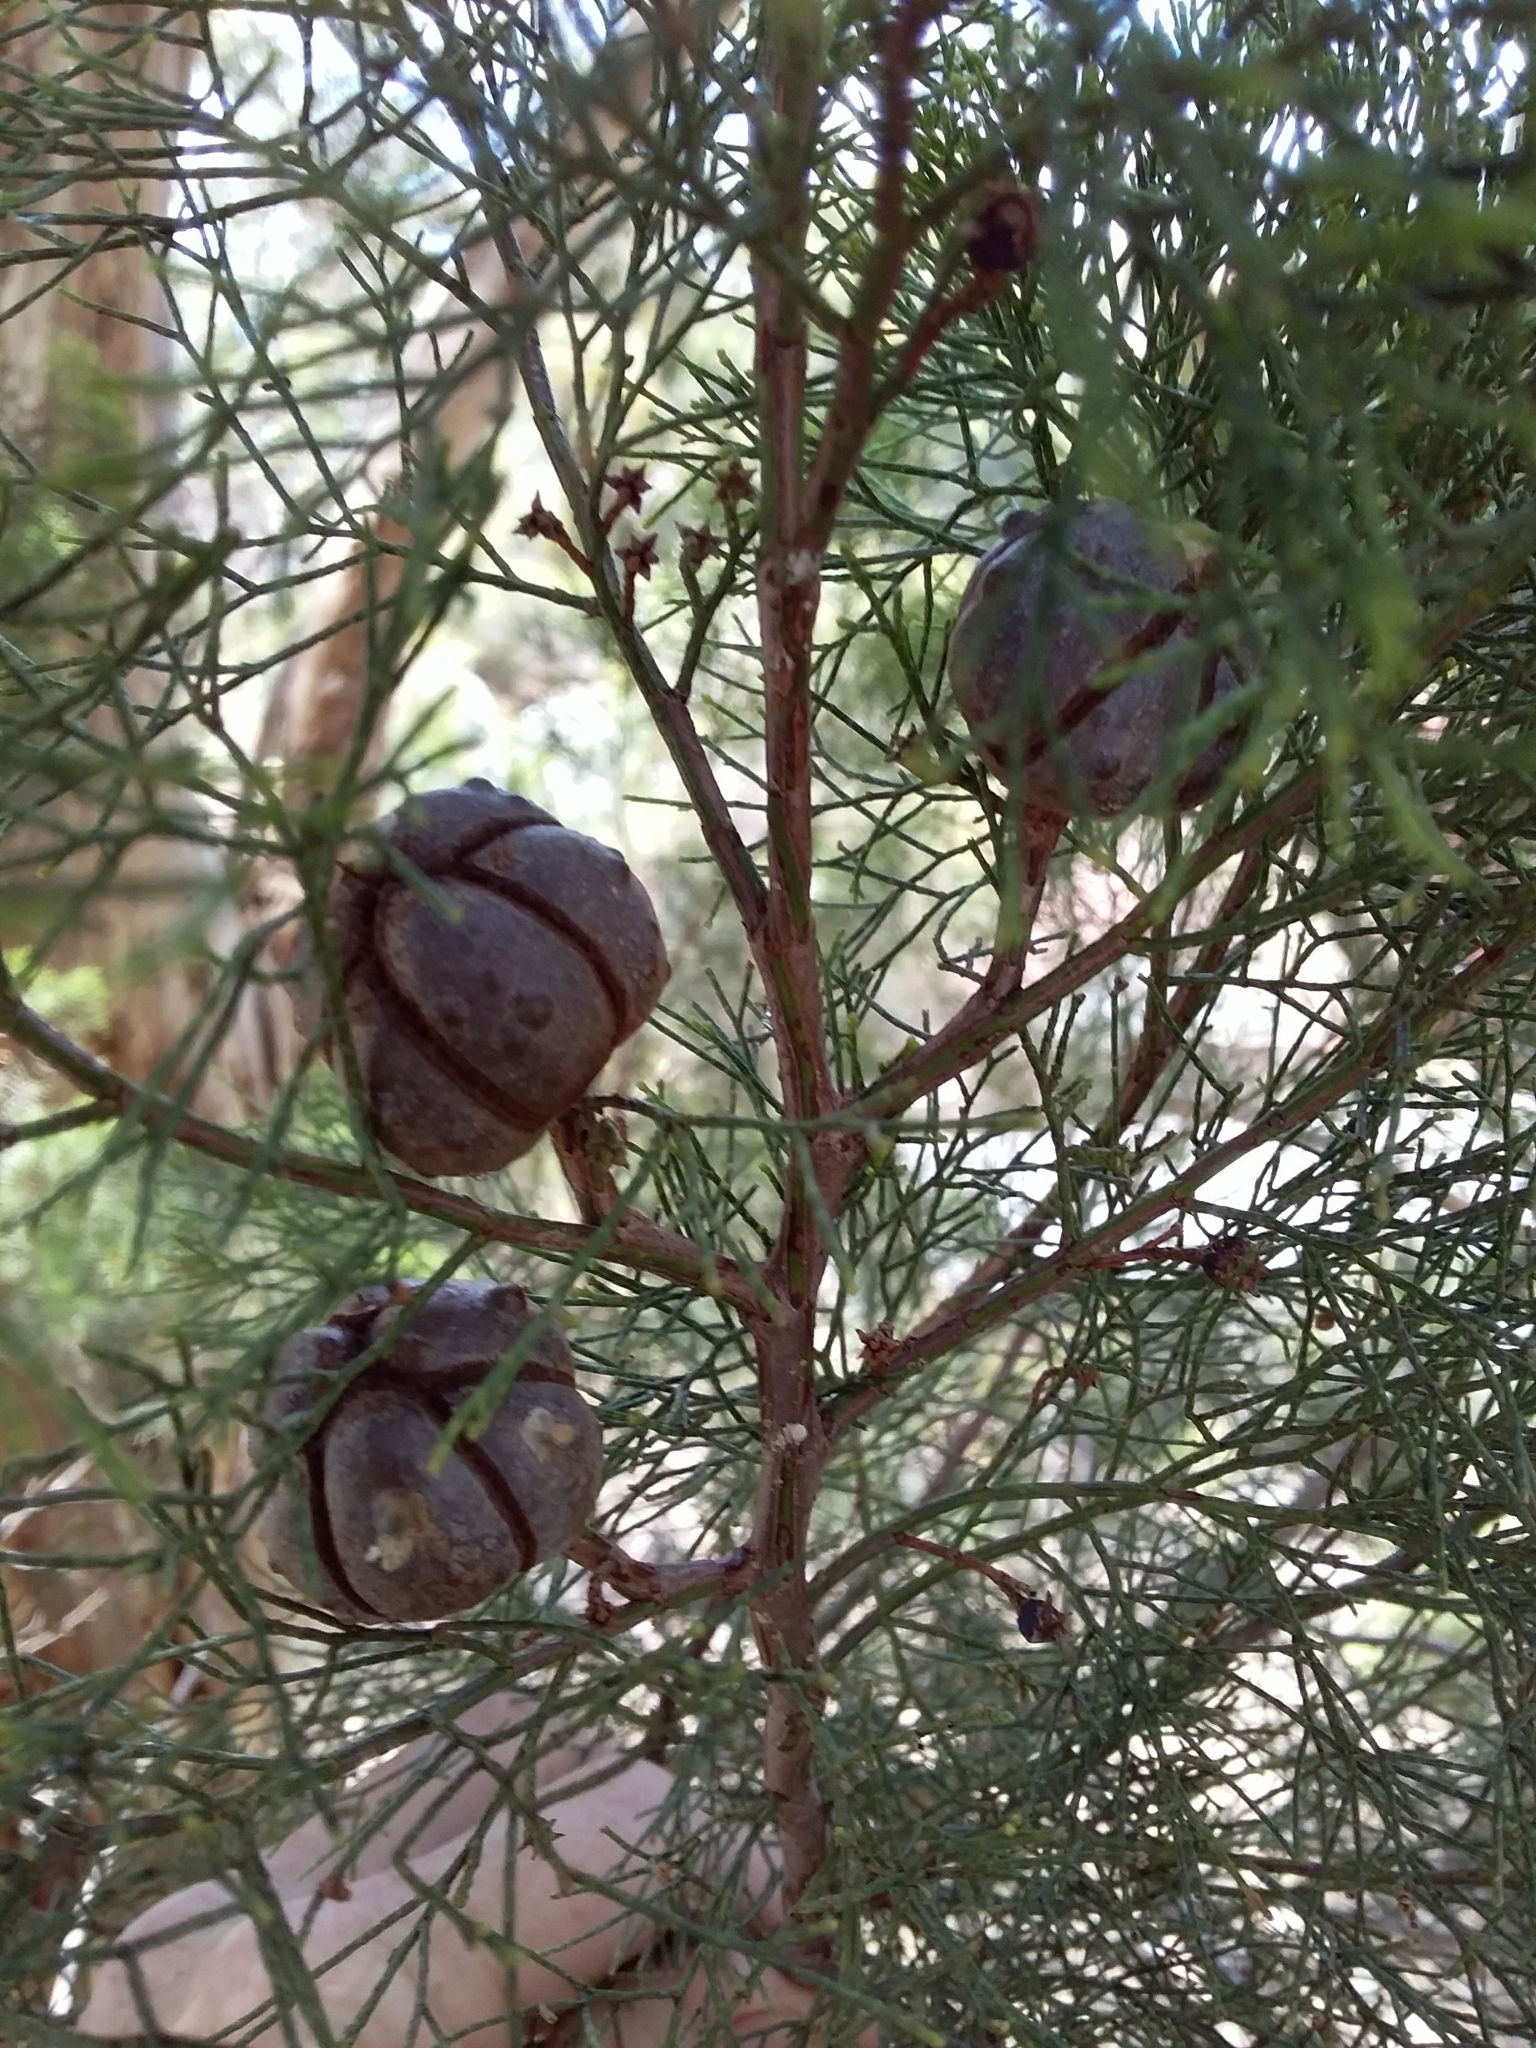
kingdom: Plantae
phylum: Tracheophyta
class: Pinopsida
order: Pinales
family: Cupressaceae
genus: Callitris
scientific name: Callitris preissii
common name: Mallee pine
